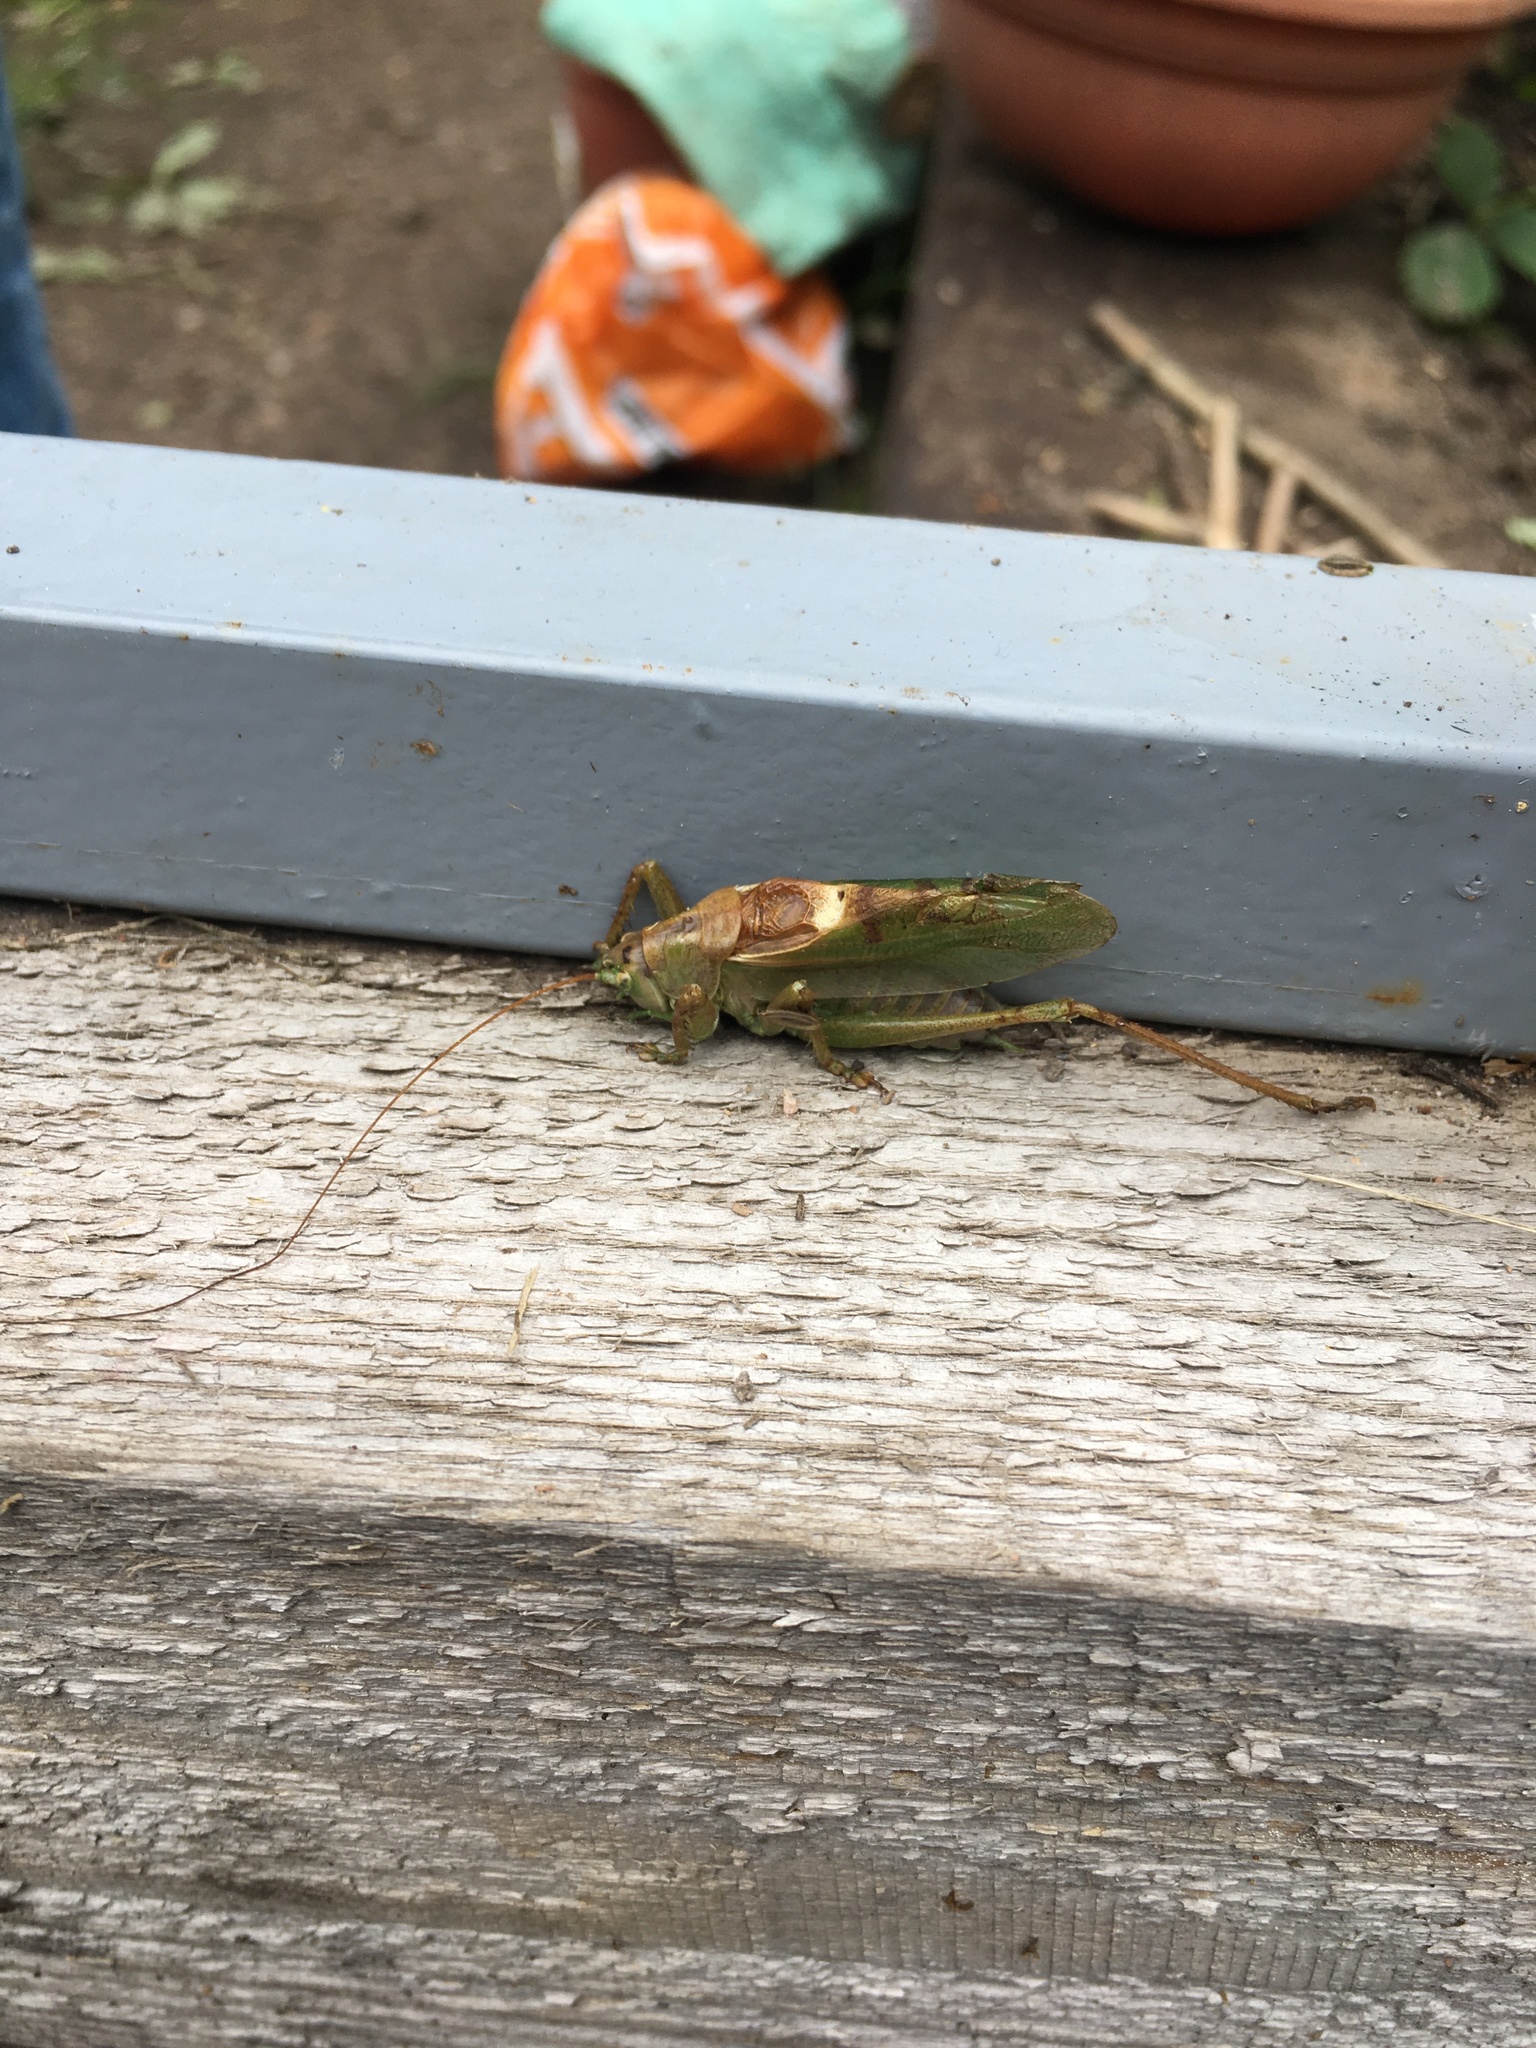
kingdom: Animalia
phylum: Arthropoda
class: Insecta
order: Orthoptera
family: Tettigoniidae
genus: Tettigonia
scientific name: Tettigonia cantans
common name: Upland green bush-cricket
